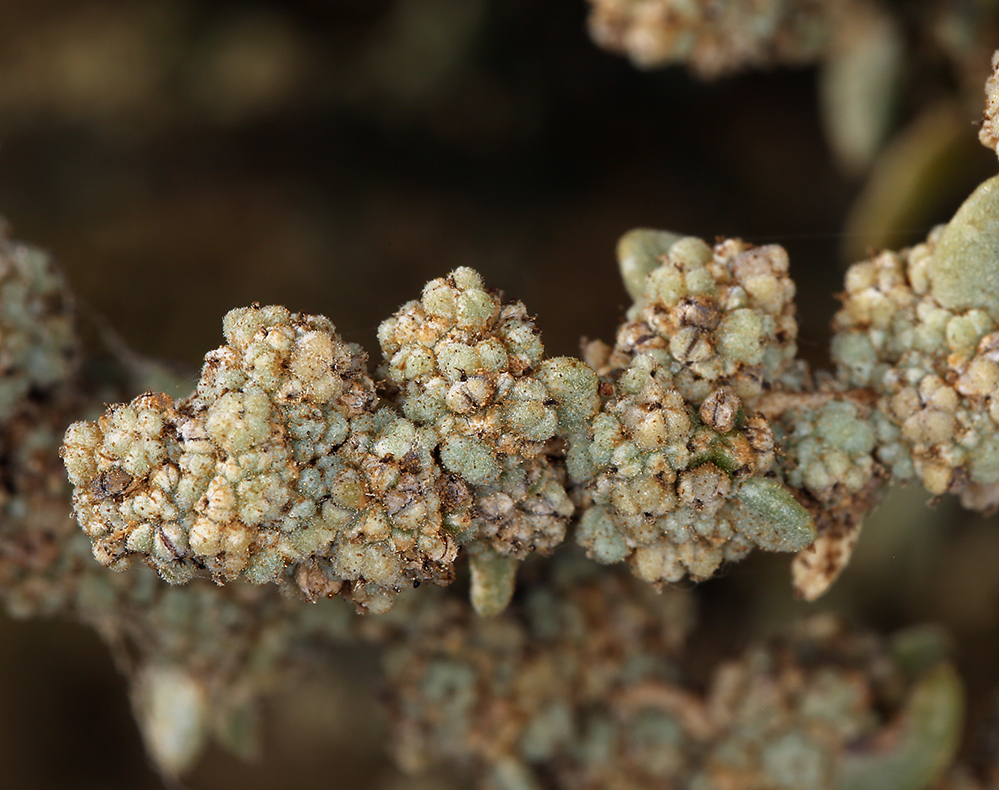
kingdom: Plantae
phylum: Tracheophyta
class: Magnoliopsida
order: Caryophyllales
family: Amaranthaceae
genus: Suaeda
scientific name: Suaeda nigra
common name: Bush seepweed
